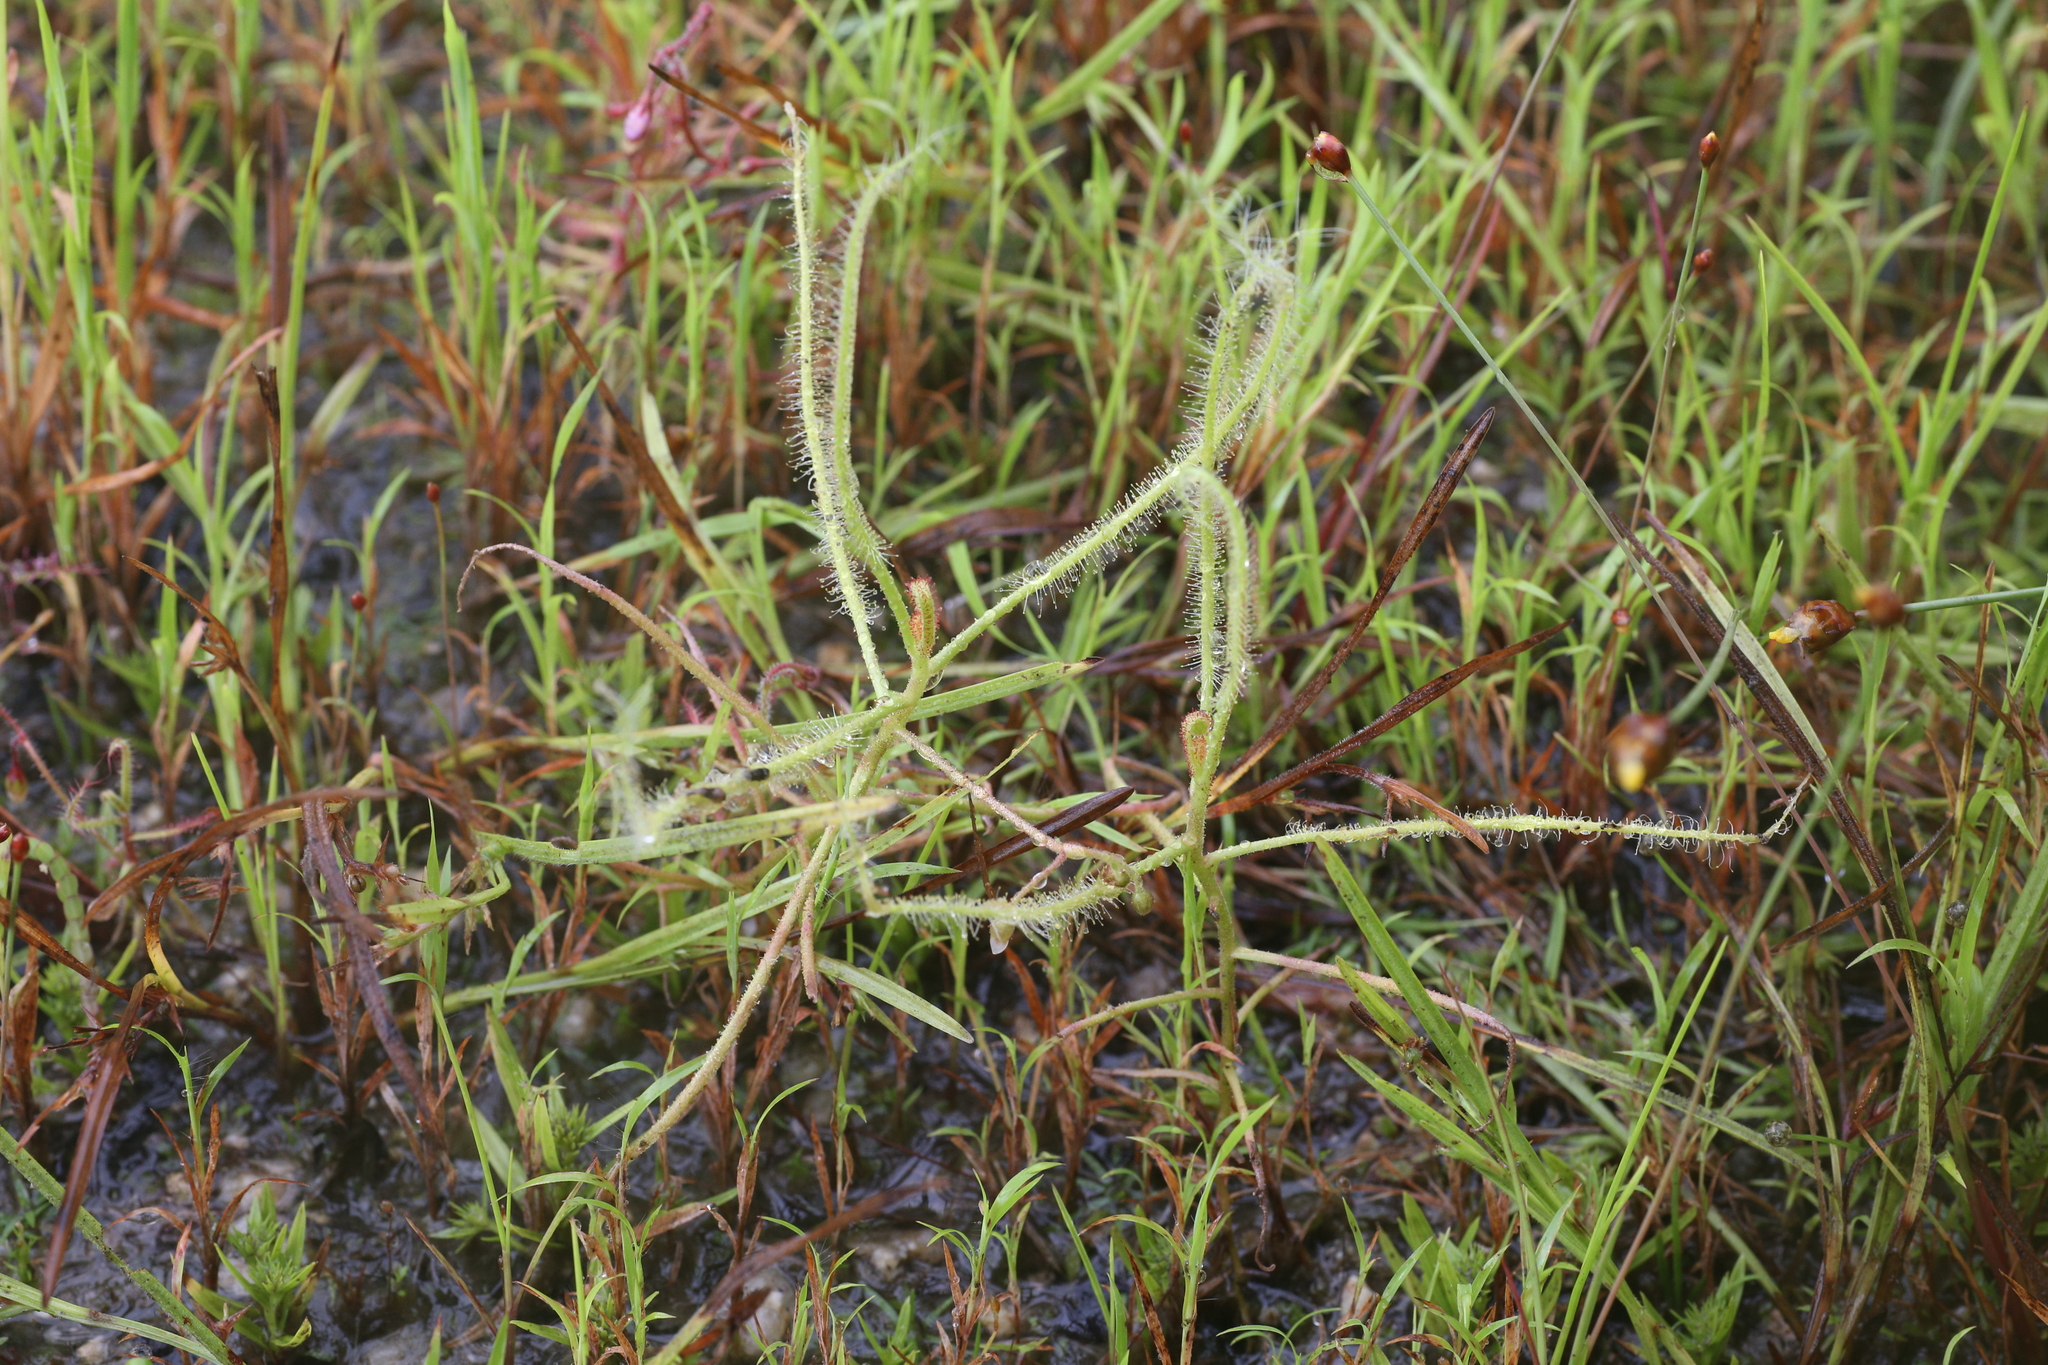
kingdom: Plantae
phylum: Tracheophyta
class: Magnoliopsida
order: Caryophyllales
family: Droseraceae
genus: Drosera
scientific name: Drosera indica
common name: Indian sundew
